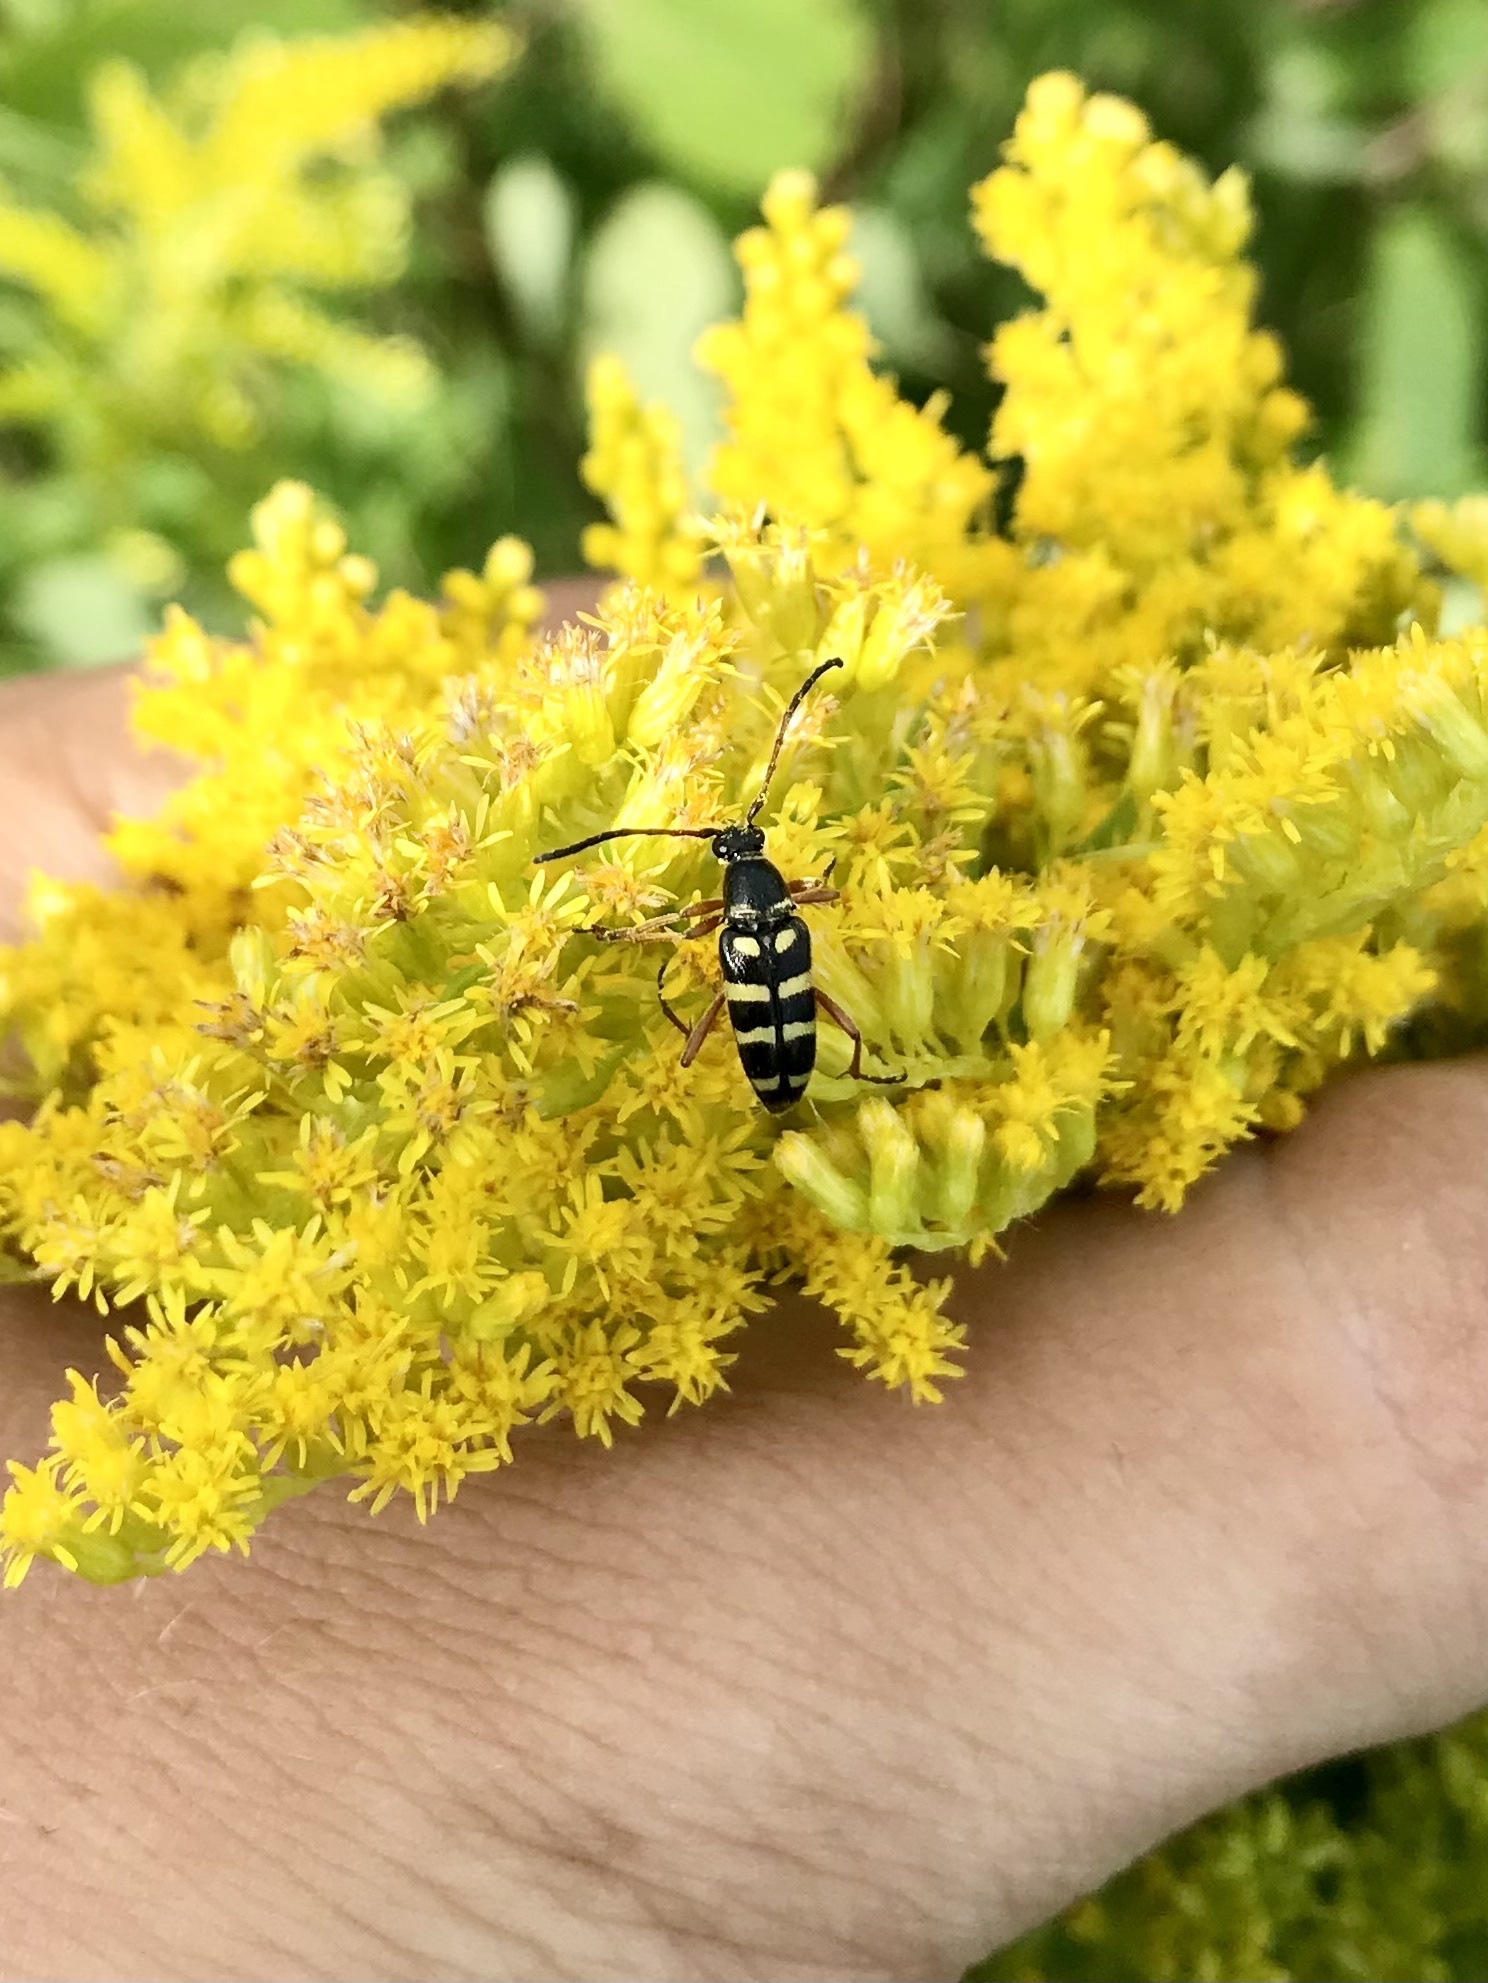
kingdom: Animalia
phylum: Arthropoda
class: Insecta
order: Coleoptera
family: Cerambycidae
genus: Typocerus
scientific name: Typocerus sparsus
